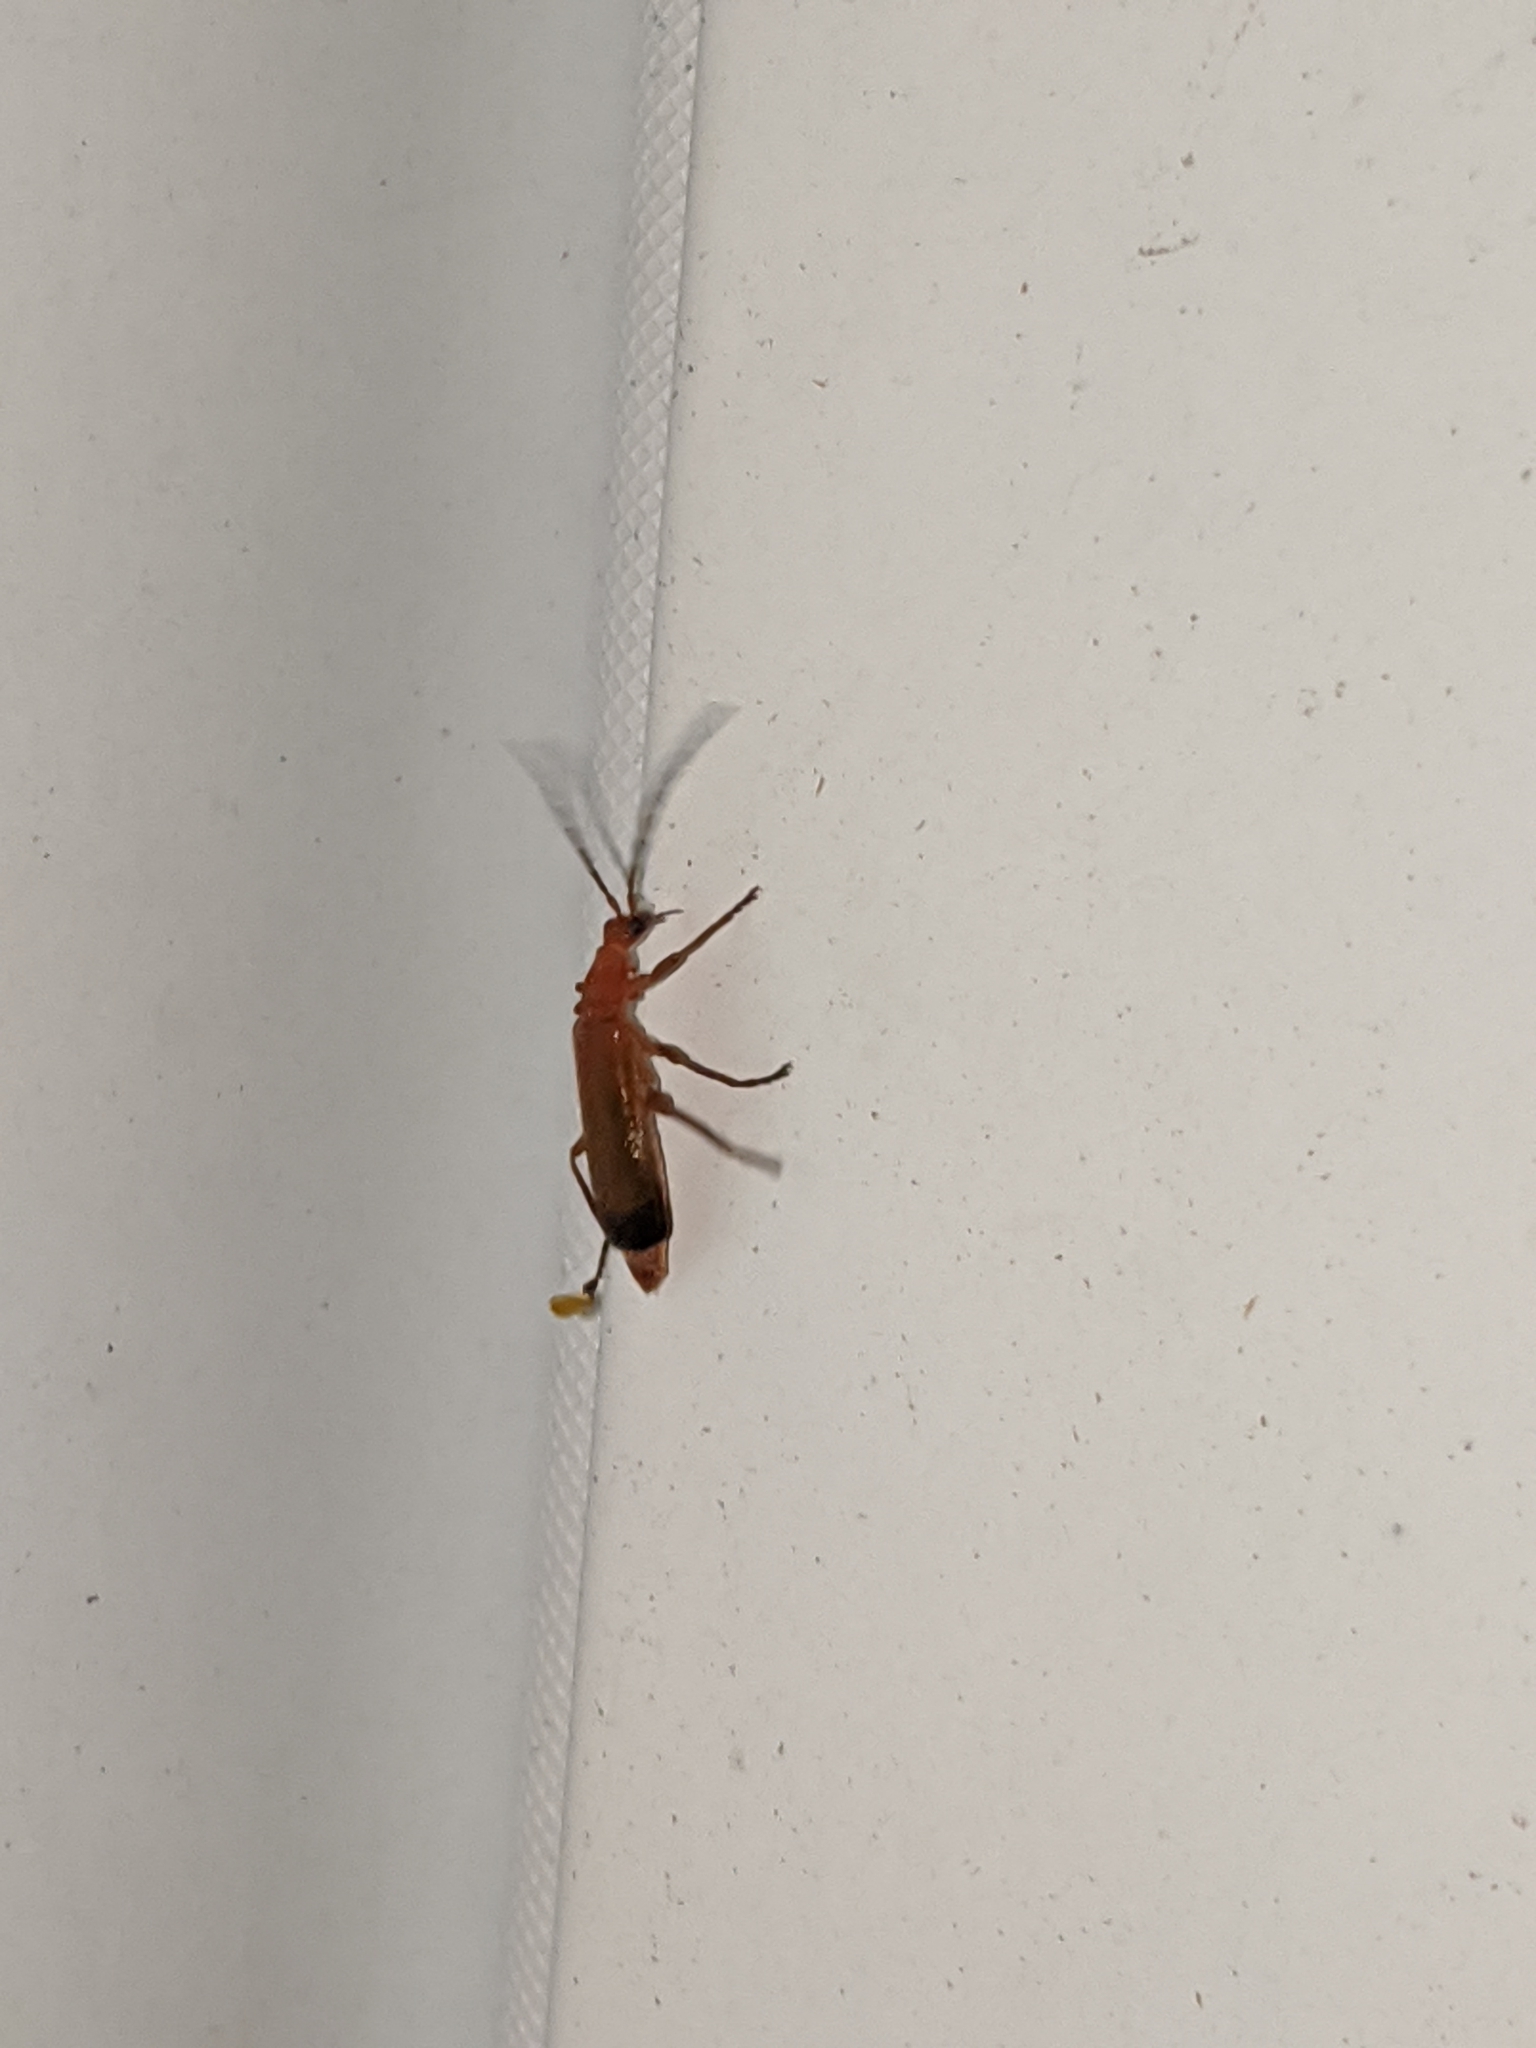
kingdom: Animalia
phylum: Arthropoda
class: Insecta
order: Coleoptera
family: Cantharidae
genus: Rhagonycha
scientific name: Rhagonycha fulva
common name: Common red soldier beetle
